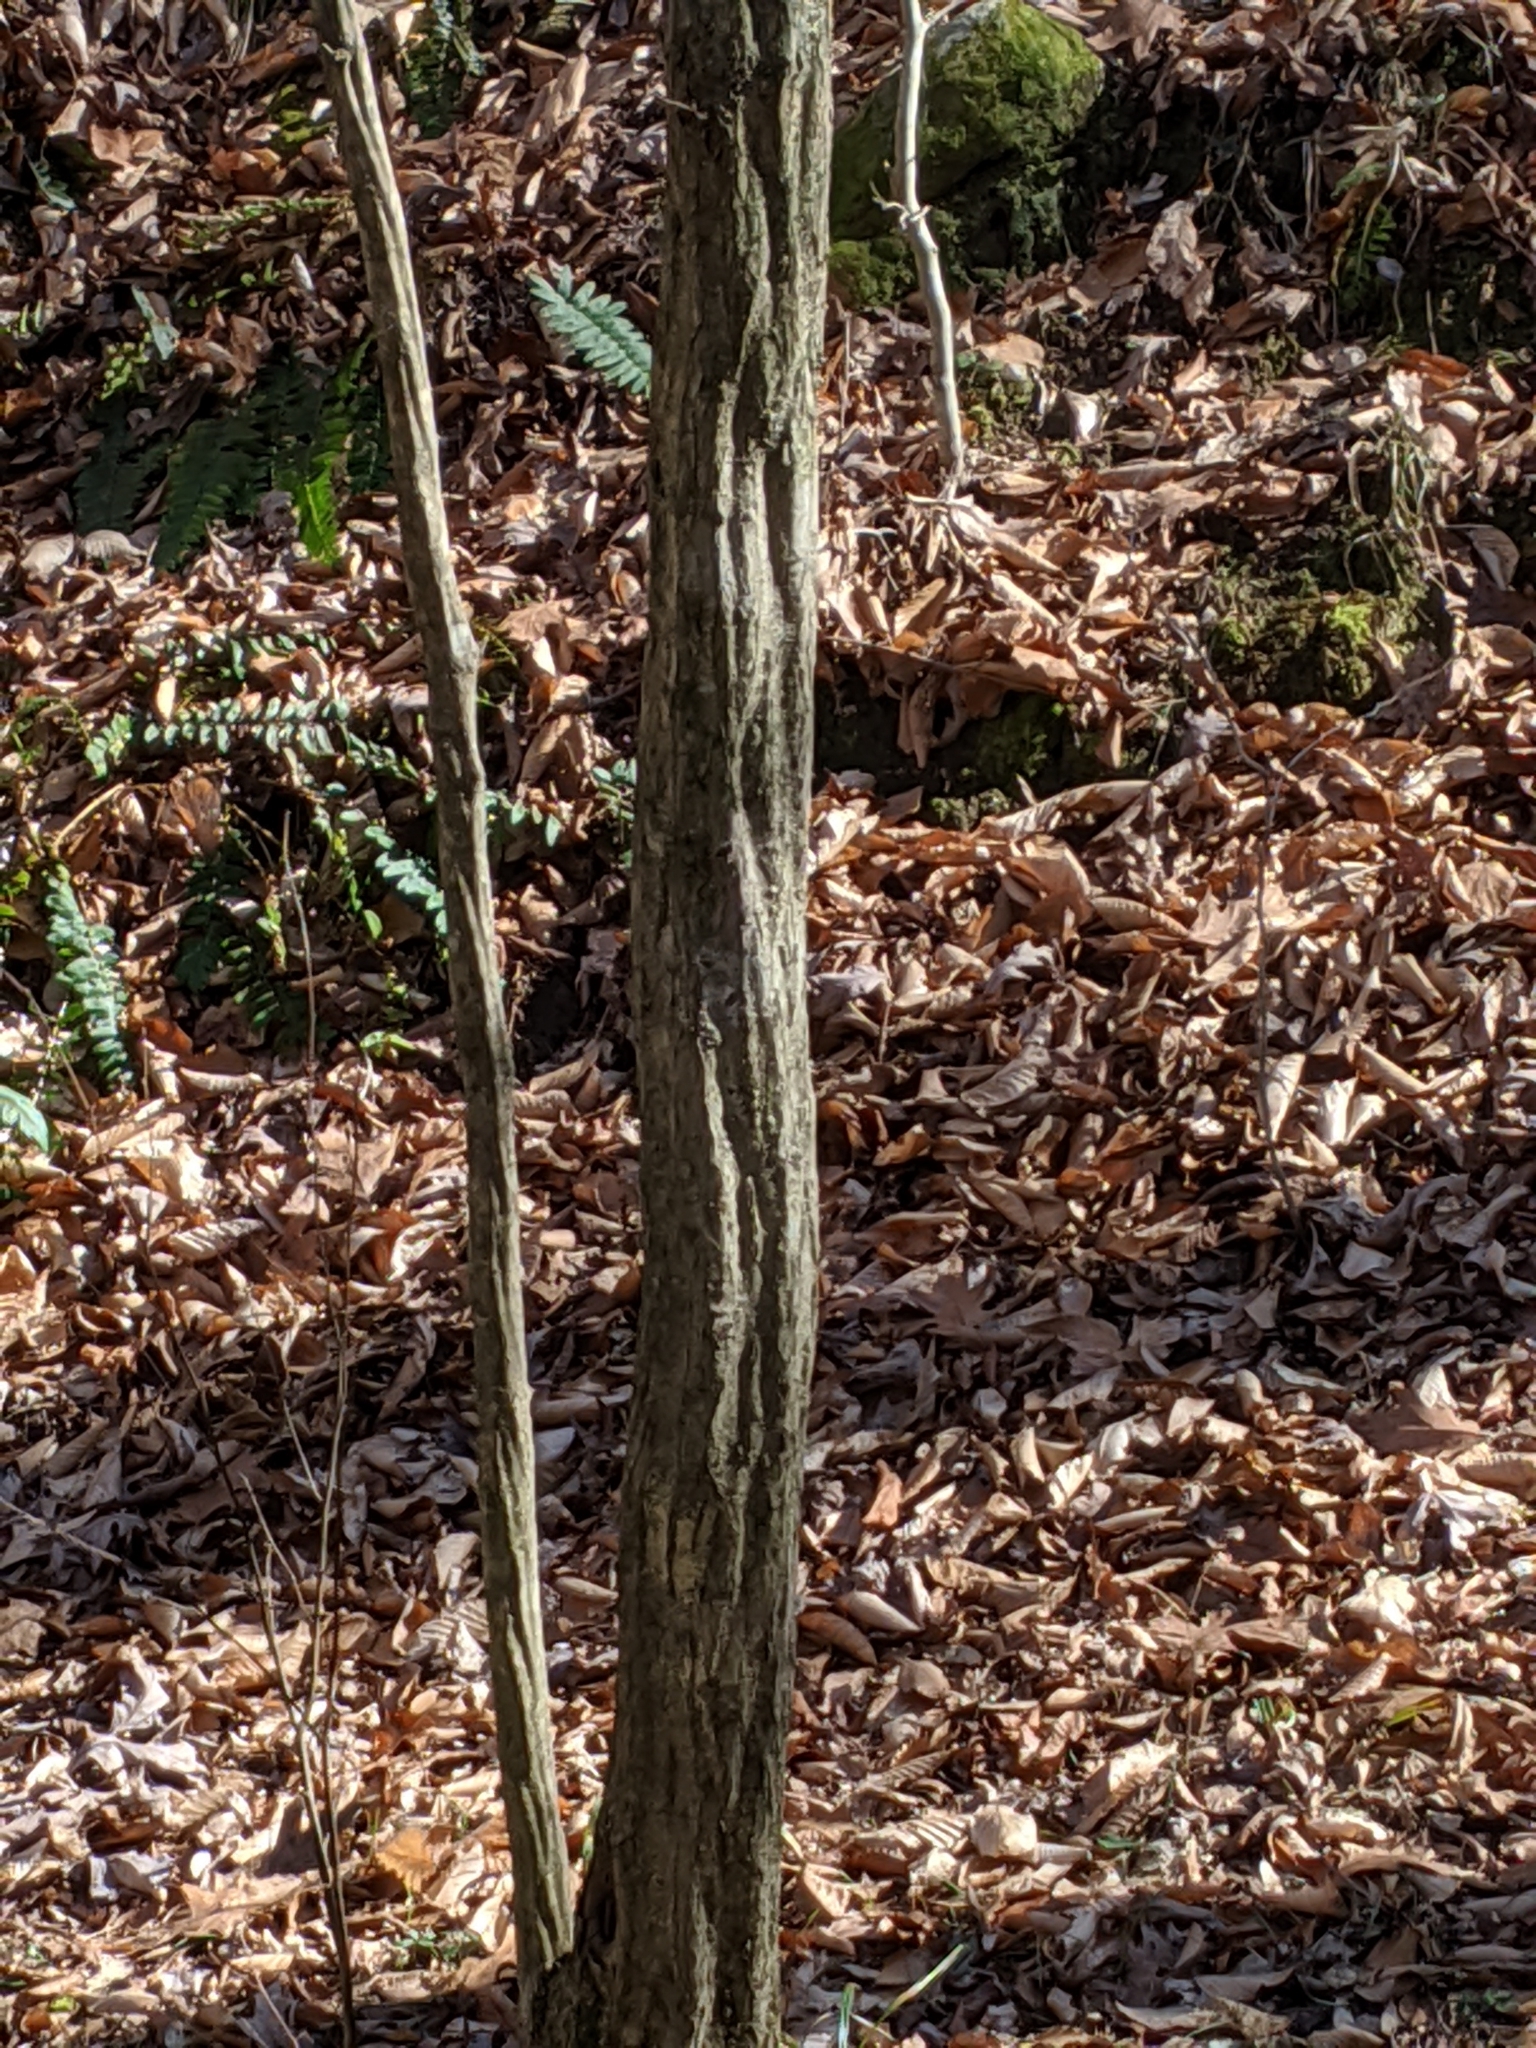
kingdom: Plantae
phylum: Tracheophyta
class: Magnoliopsida
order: Fagales
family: Betulaceae
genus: Carpinus
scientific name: Carpinus caroliniana
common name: American hornbeam
